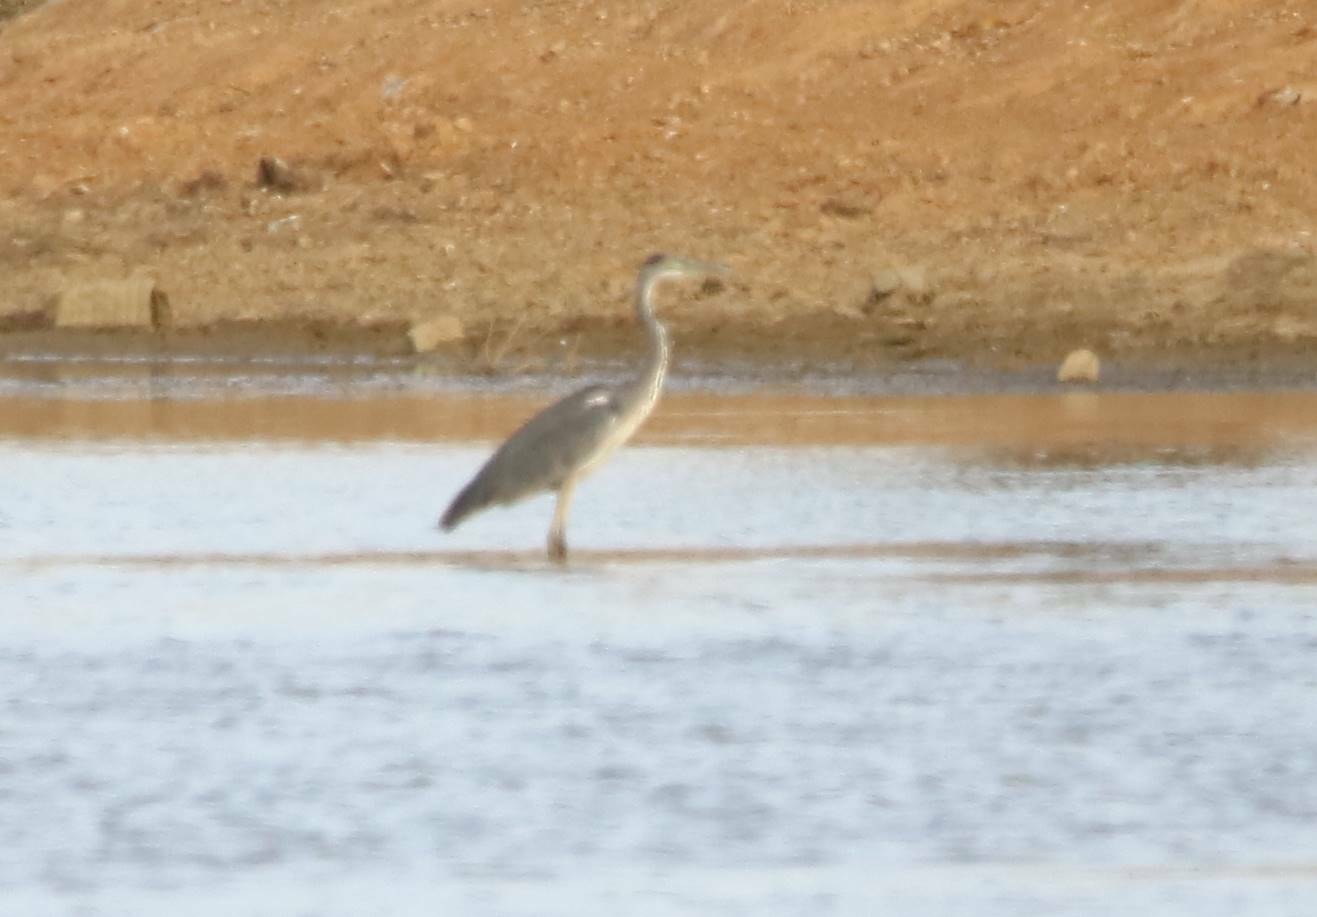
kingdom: Animalia
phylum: Chordata
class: Aves
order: Pelecaniformes
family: Ardeidae
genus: Ardea
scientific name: Ardea cinerea
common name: Grey heron
